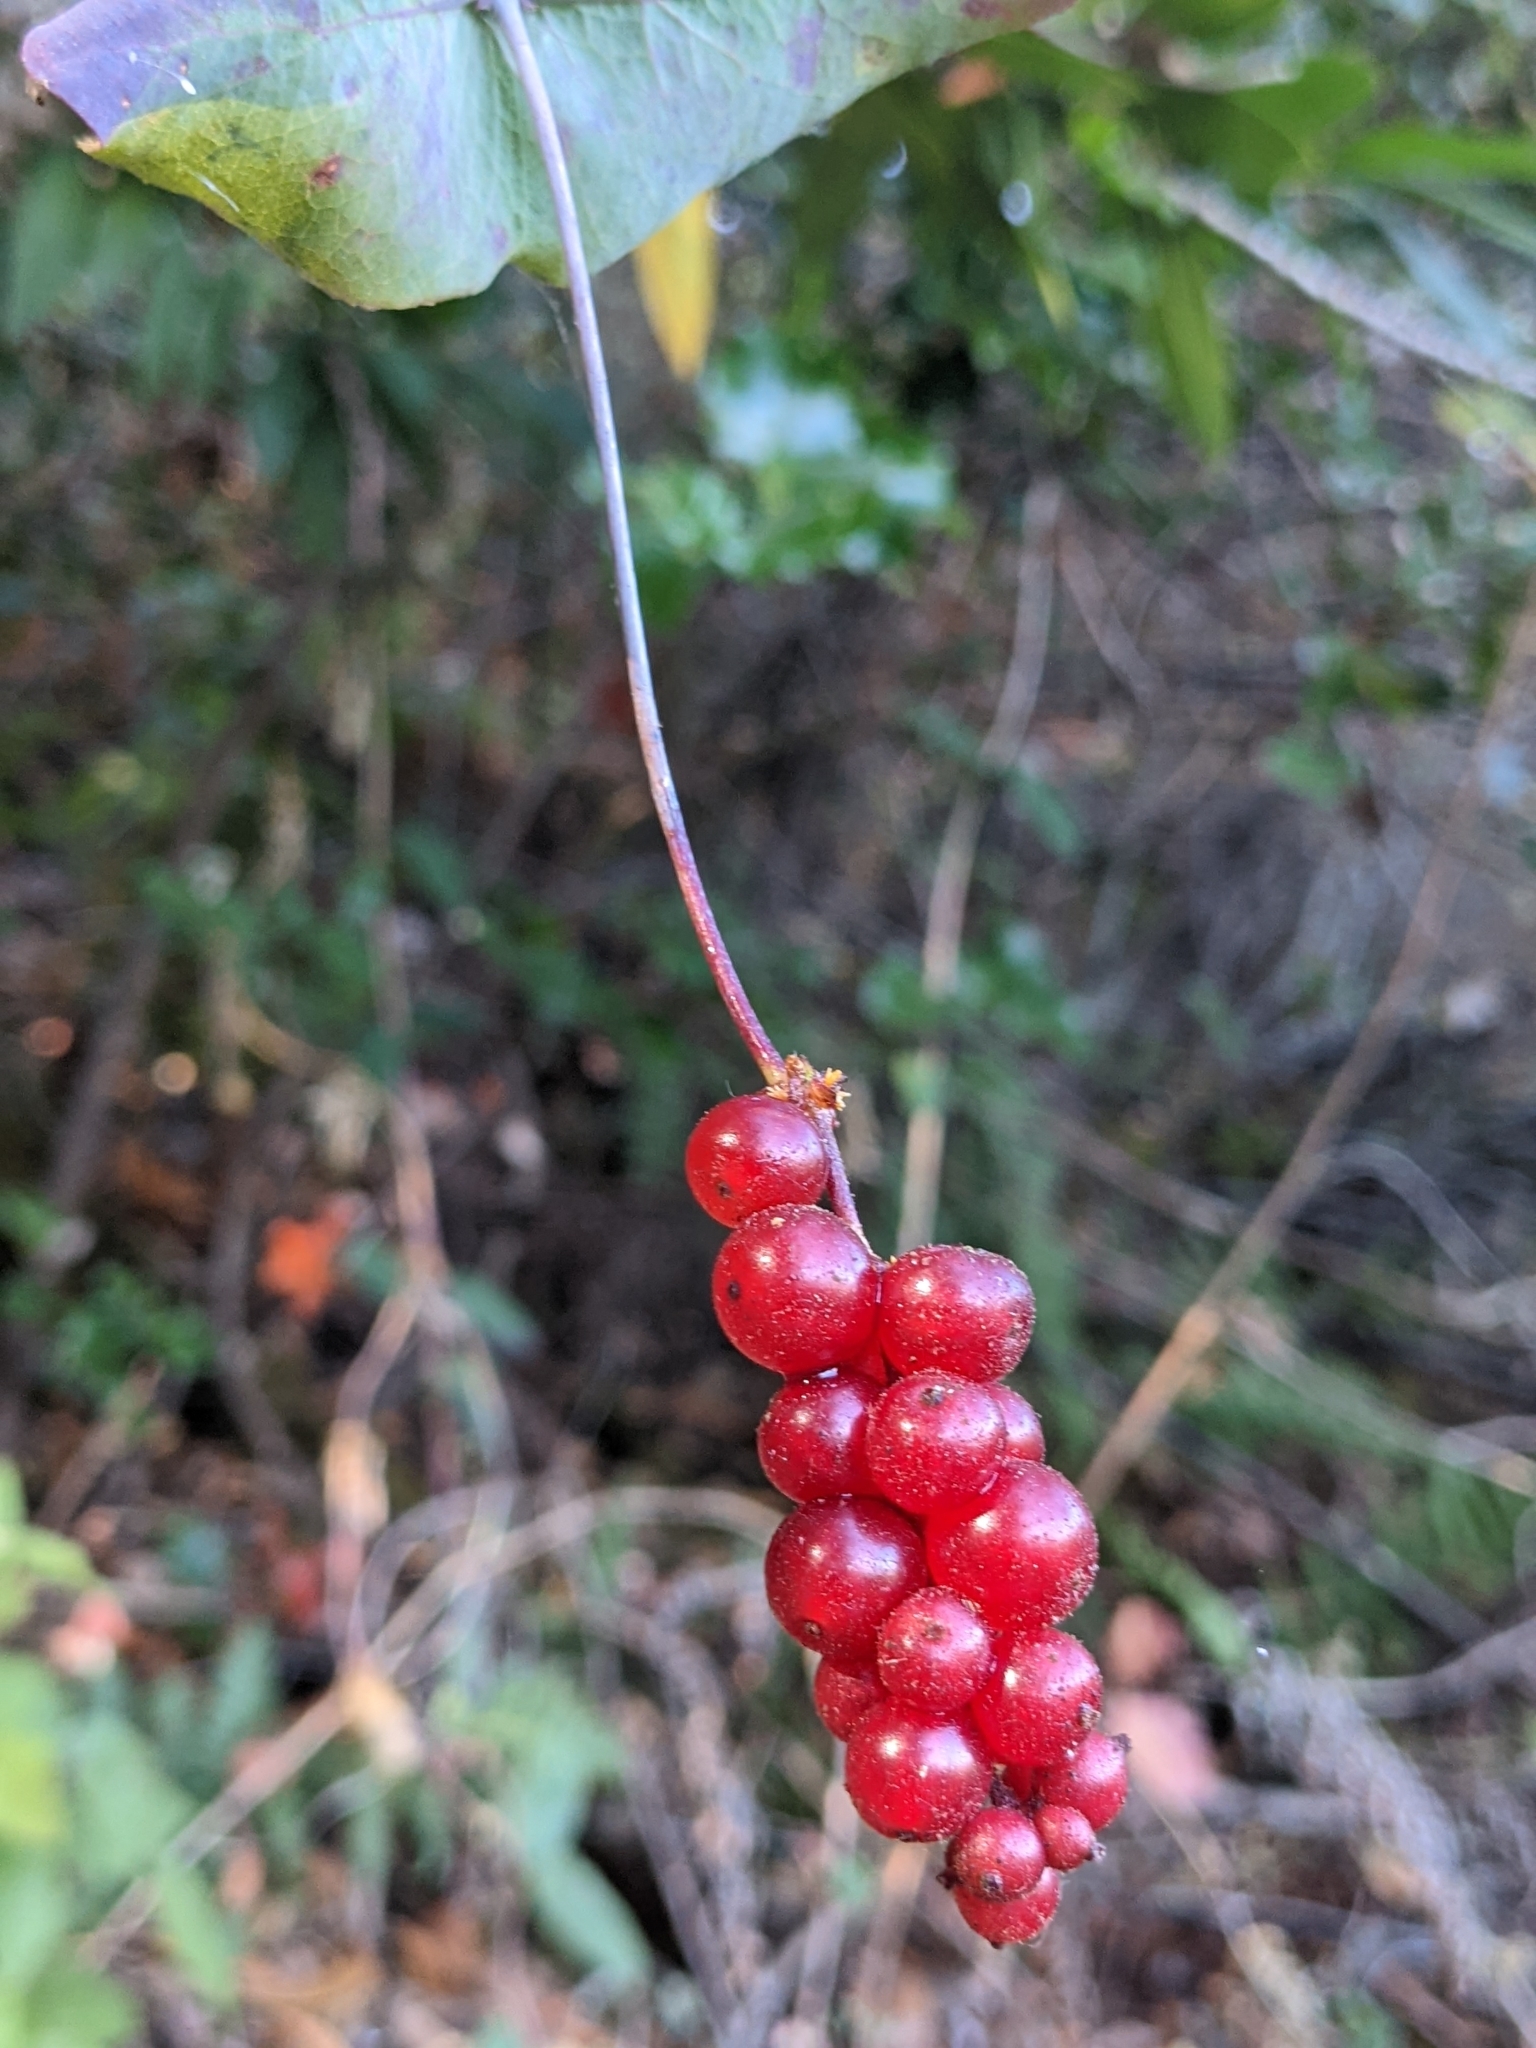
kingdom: Plantae
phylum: Tracheophyta
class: Magnoliopsida
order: Dipsacales
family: Caprifoliaceae
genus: Lonicera
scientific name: Lonicera hispidula
